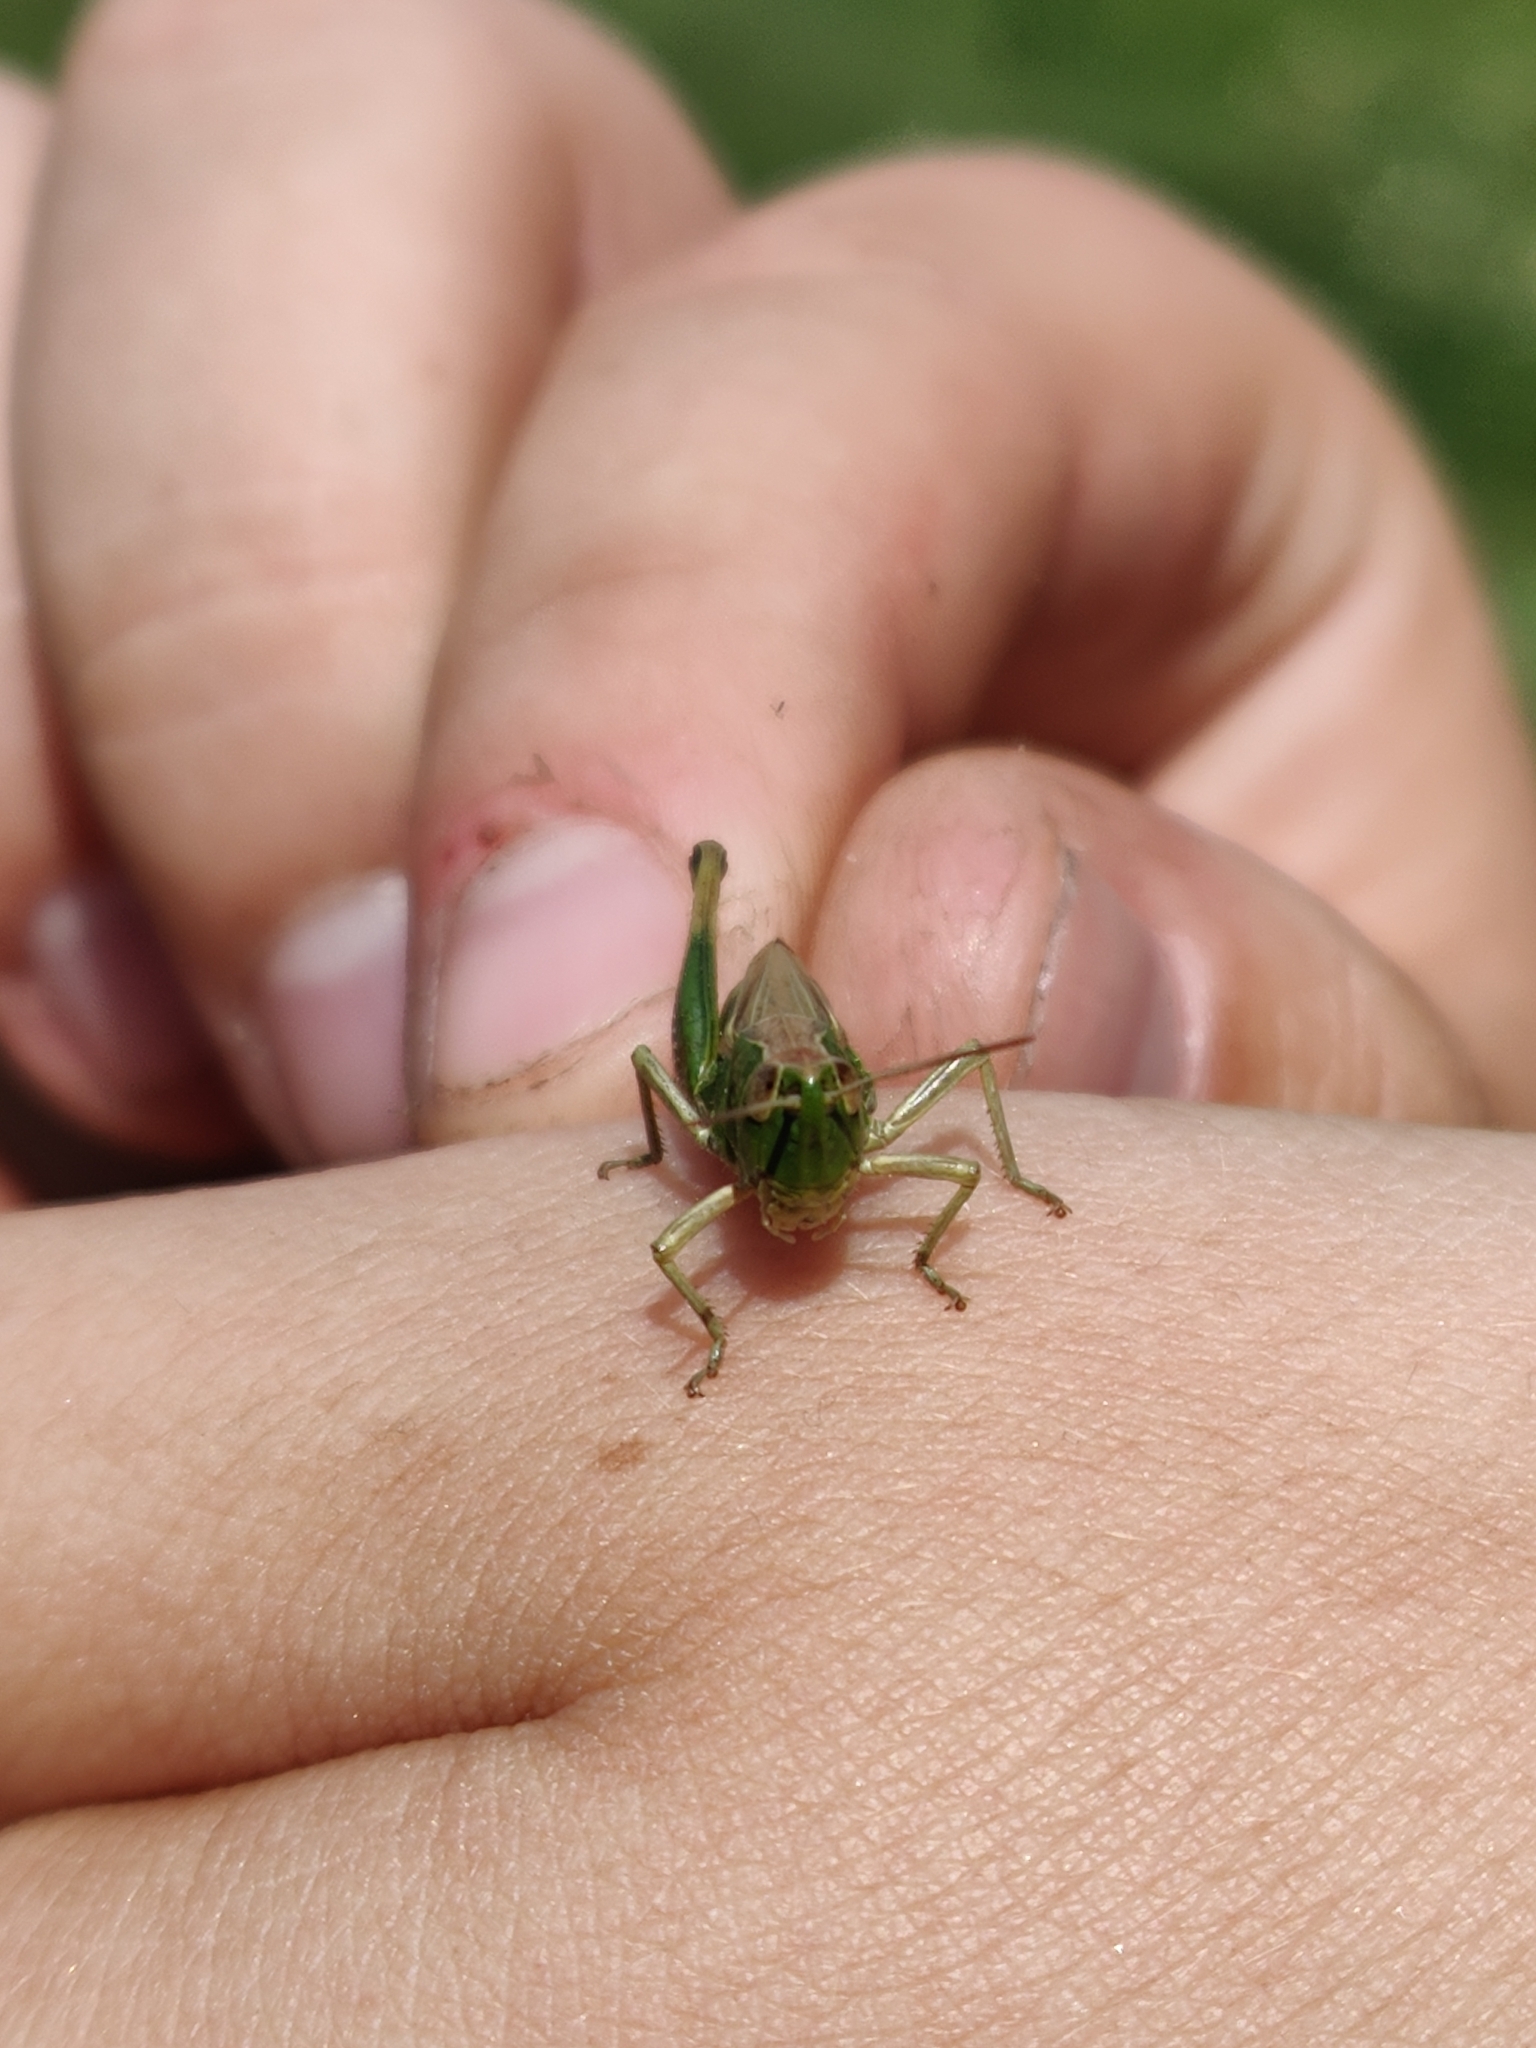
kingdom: Animalia
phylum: Arthropoda
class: Insecta
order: Orthoptera
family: Acrididae
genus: Pseudochorthippus
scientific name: Pseudochorthippus parallelus
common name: Meadow grasshopper
